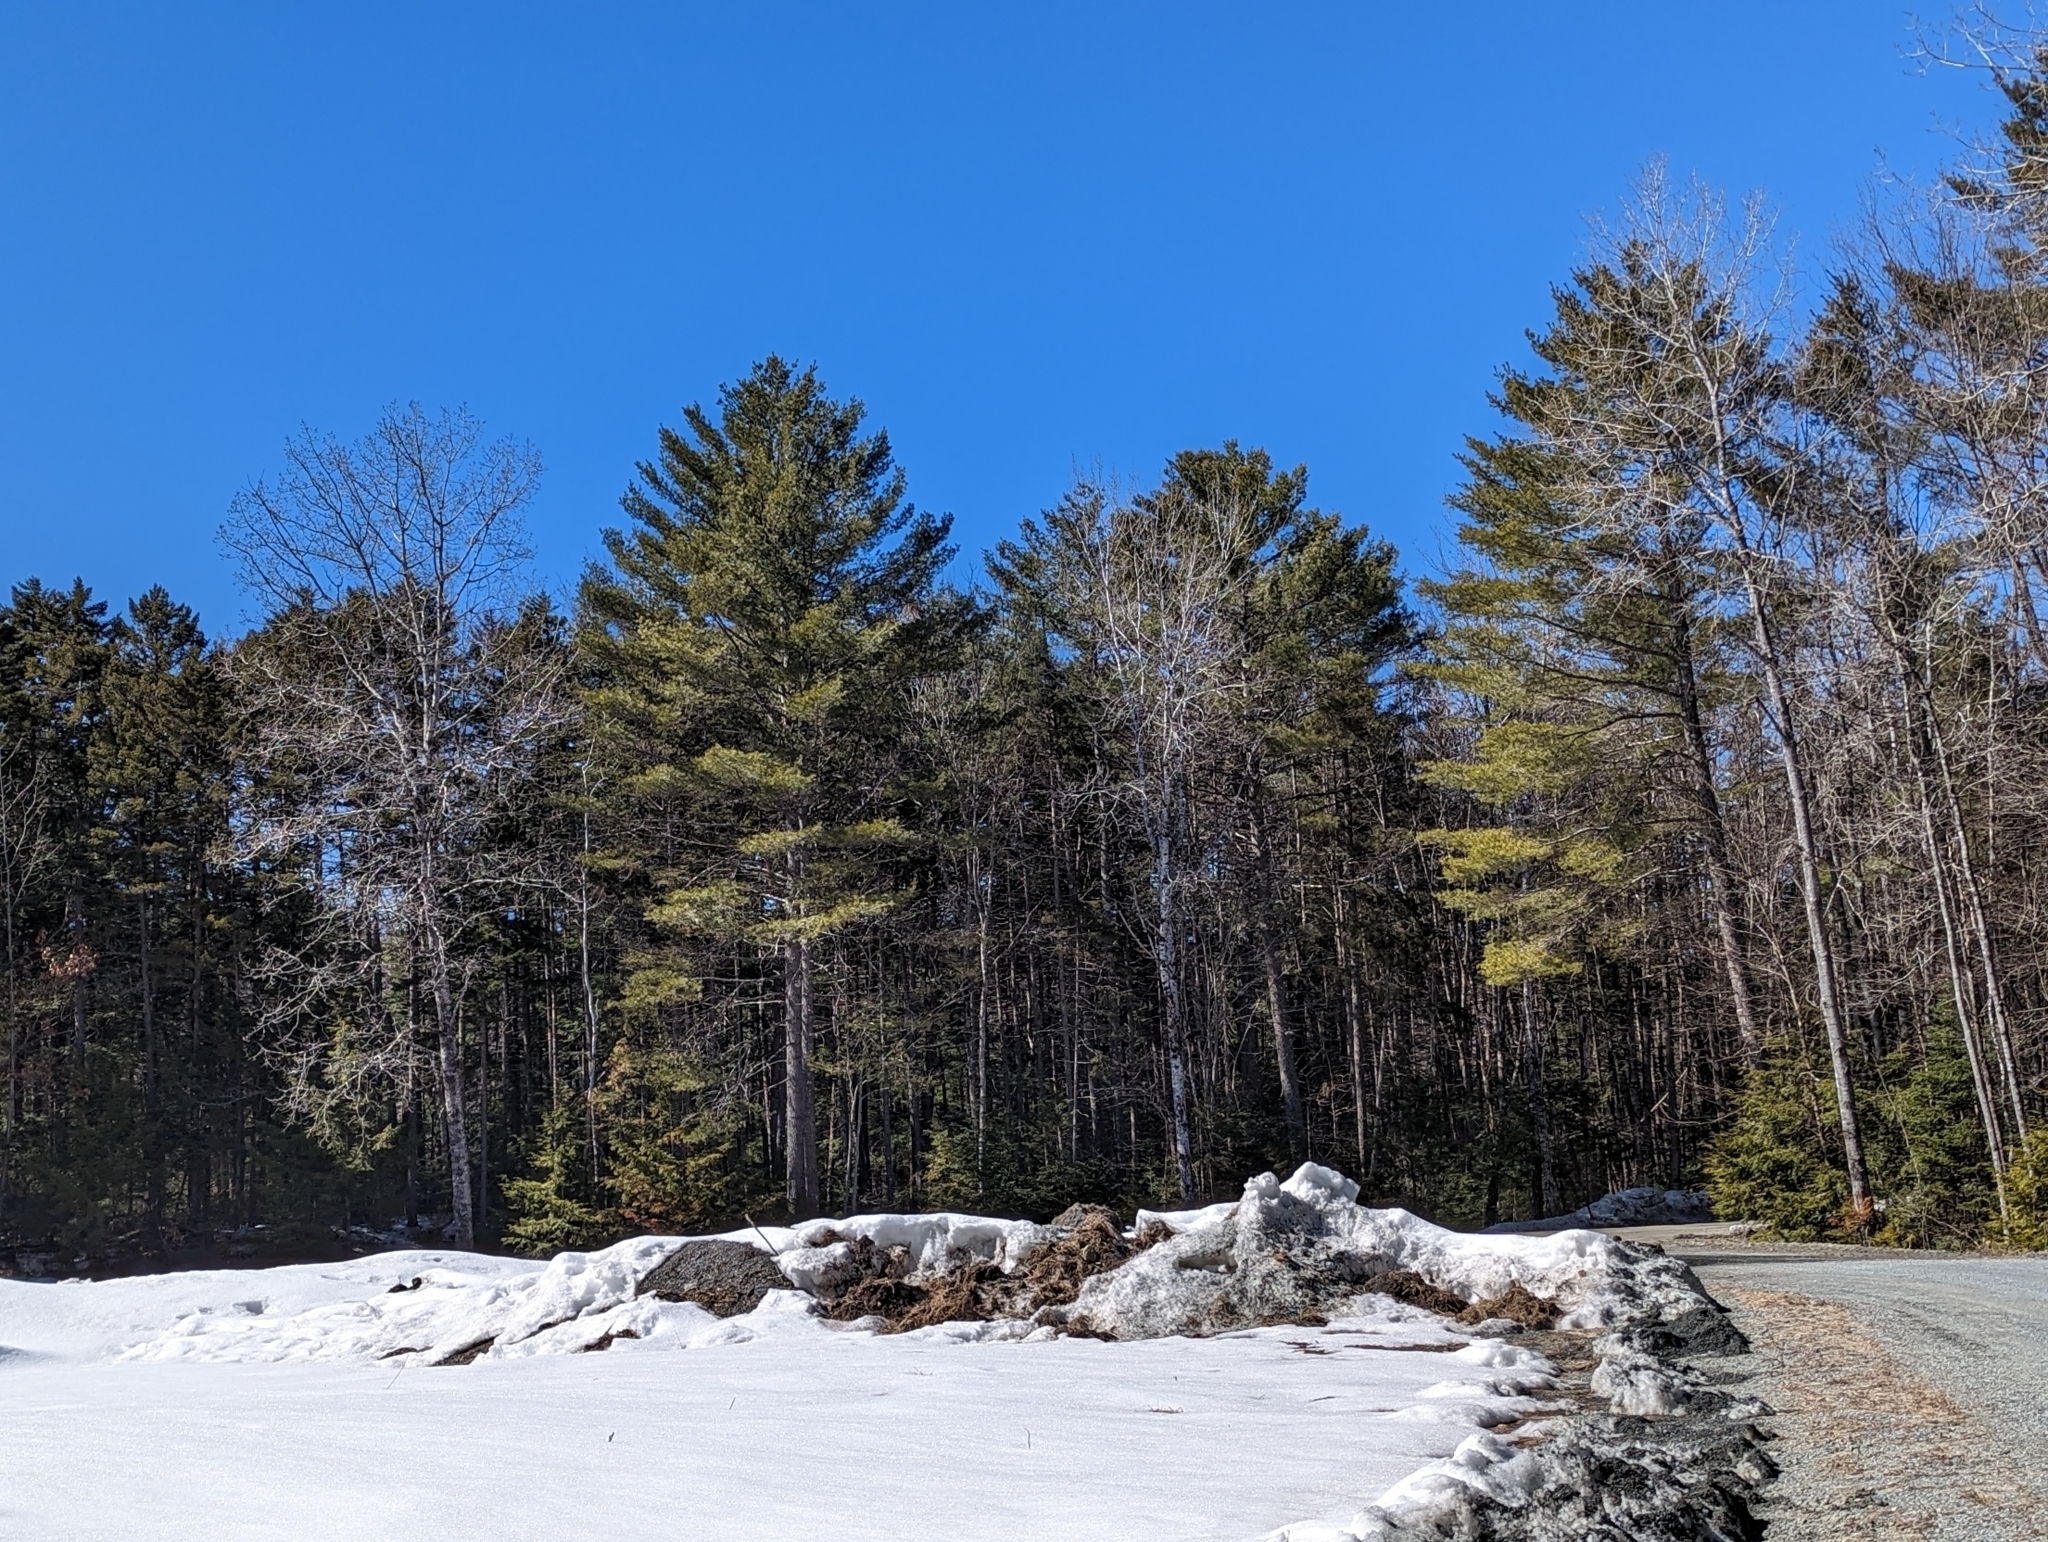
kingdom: Plantae
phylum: Tracheophyta
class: Pinopsida
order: Pinales
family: Pinaceae
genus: Pinus
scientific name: Pinus strobus
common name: Weymouth pine
